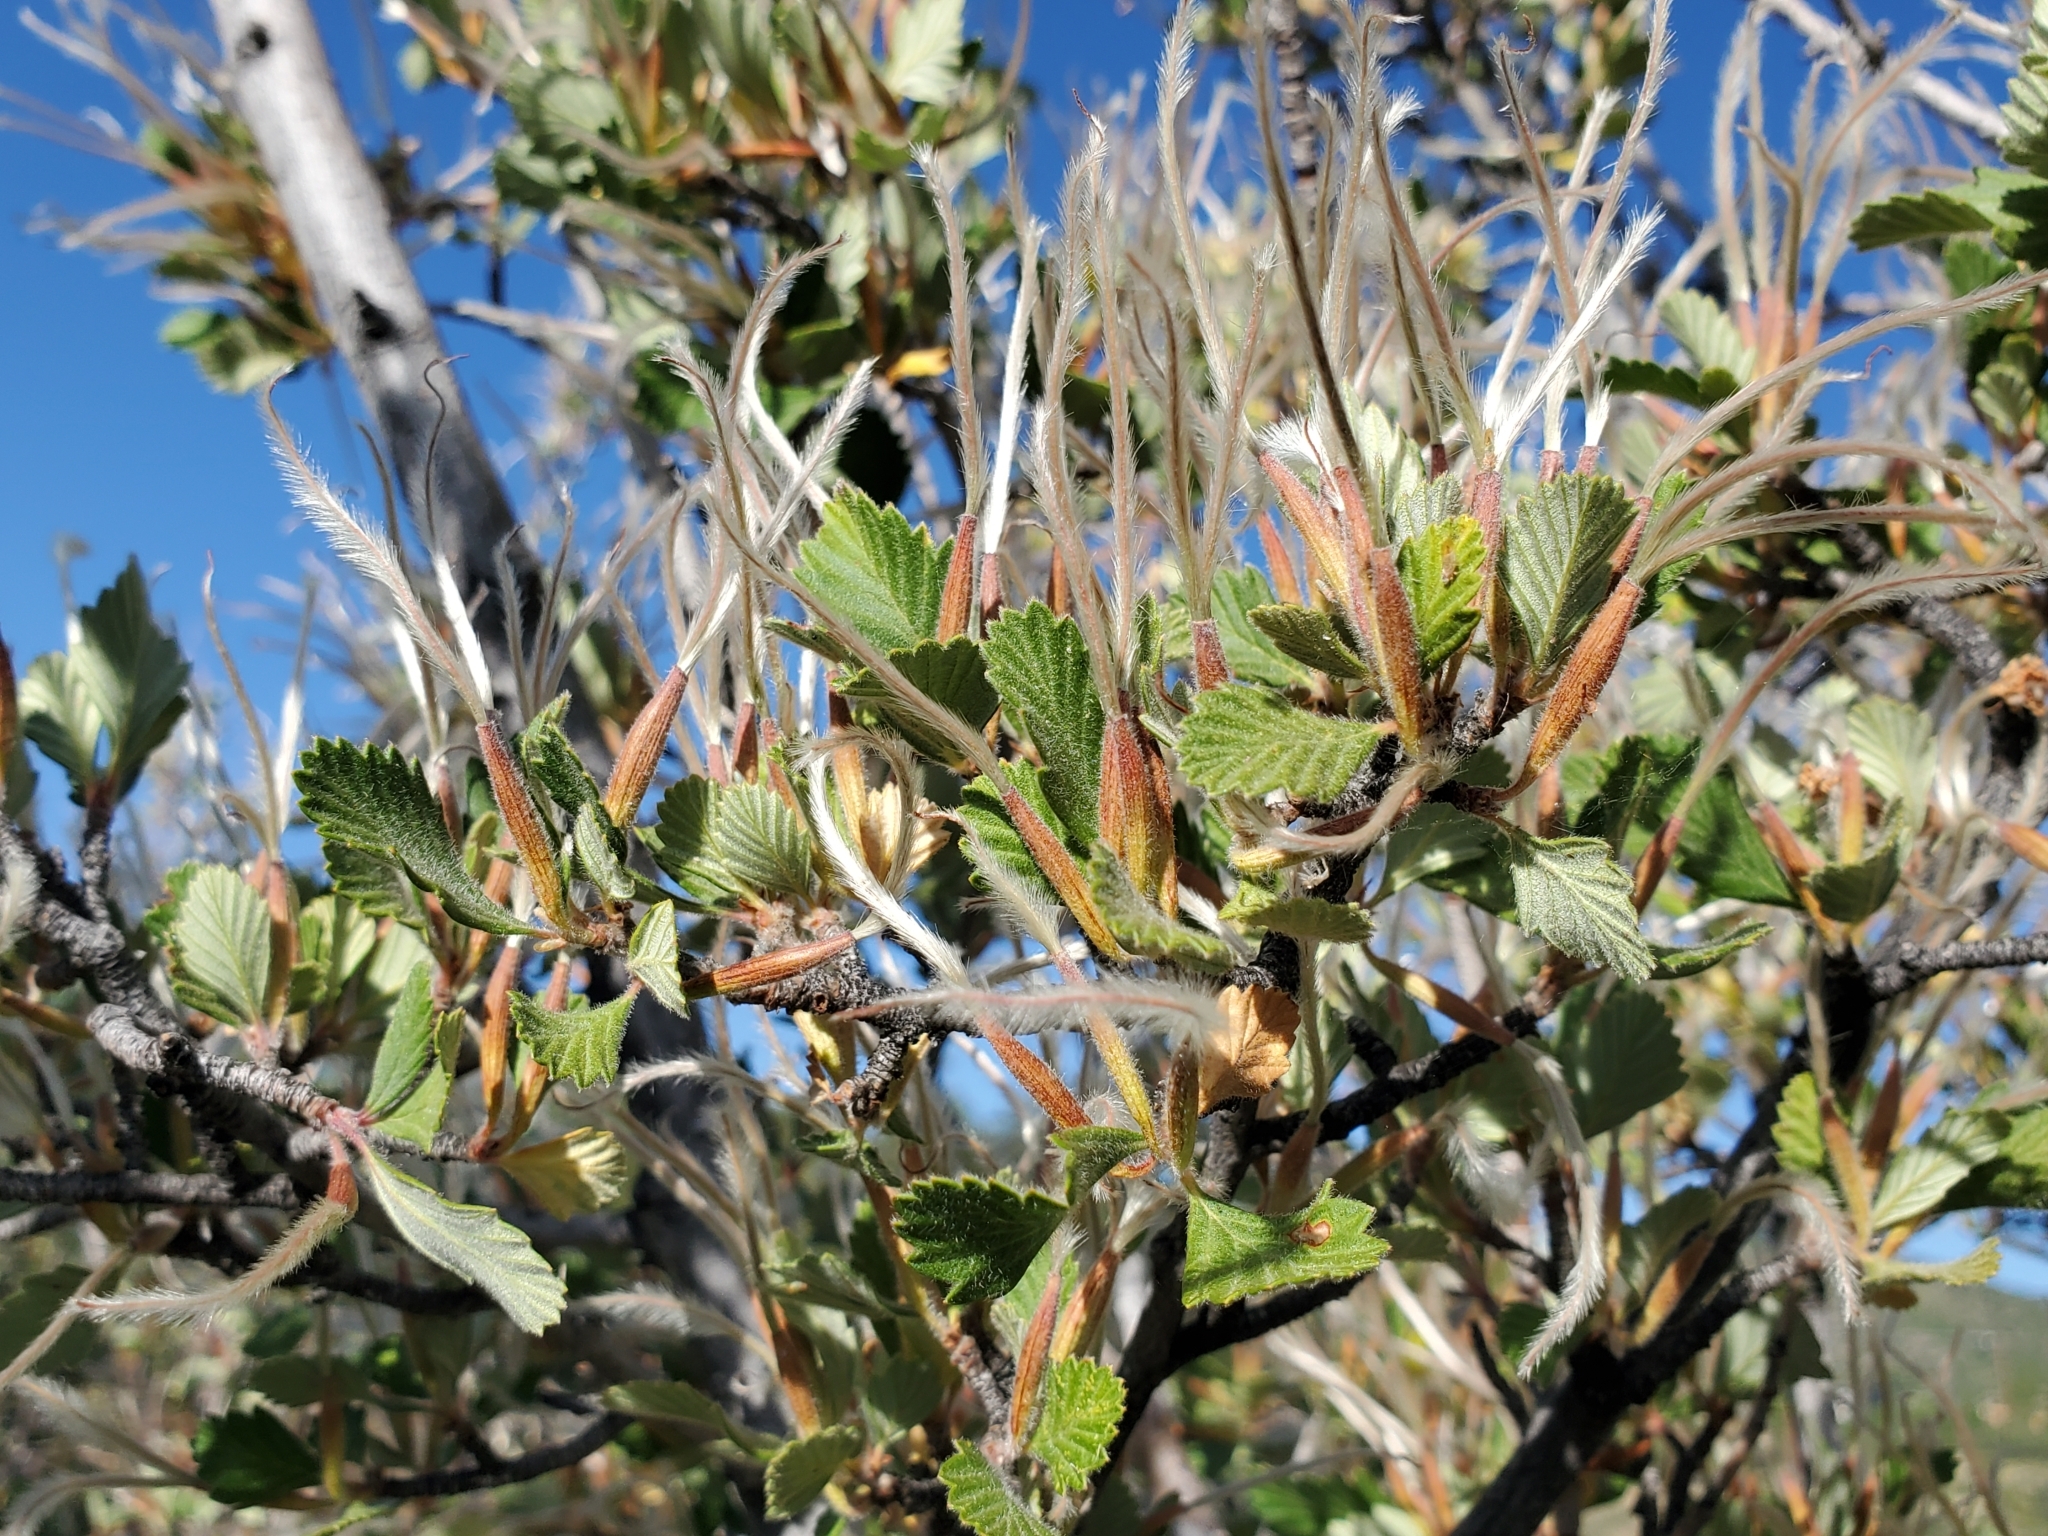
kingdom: Plantae
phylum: Tracheophyta
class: Magnoliopsida
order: Rosales
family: Rosaceae
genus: Cercocarpus
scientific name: Cercocarpus montanus
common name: Alder-leaf cercocarpus
